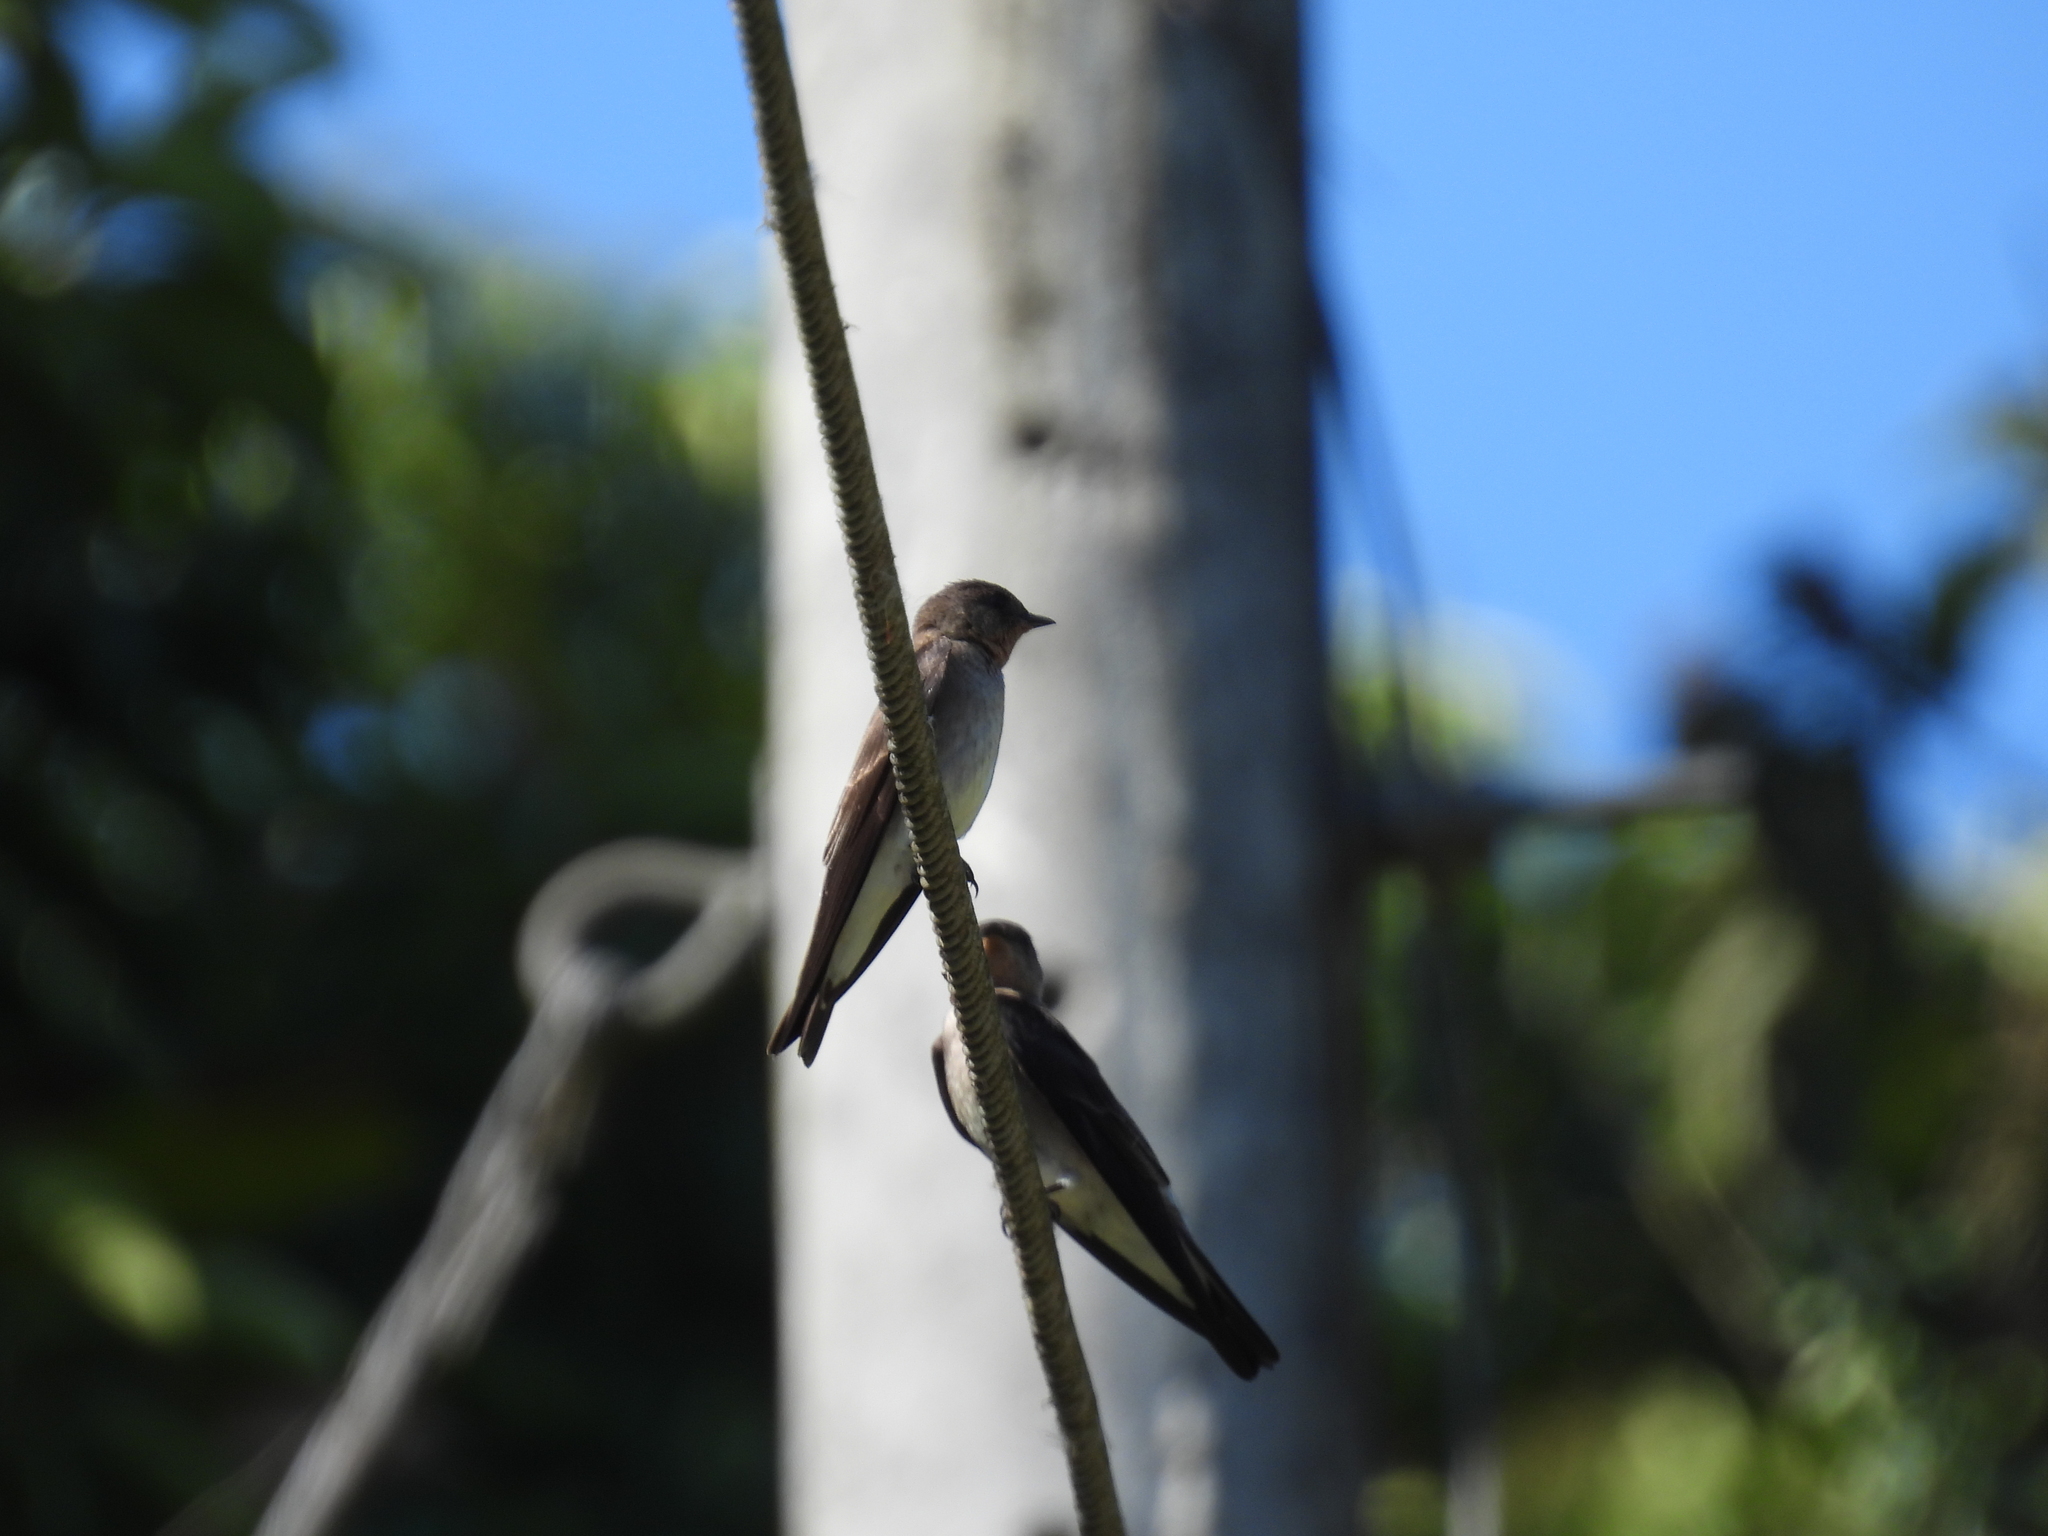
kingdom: Animalia
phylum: Chordata
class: Aves
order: Passeriformes
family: Hirundinidae
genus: Stelgidopteryx
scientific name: Stelgidopteryx ruficollis
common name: Southern rough-winged swallow
